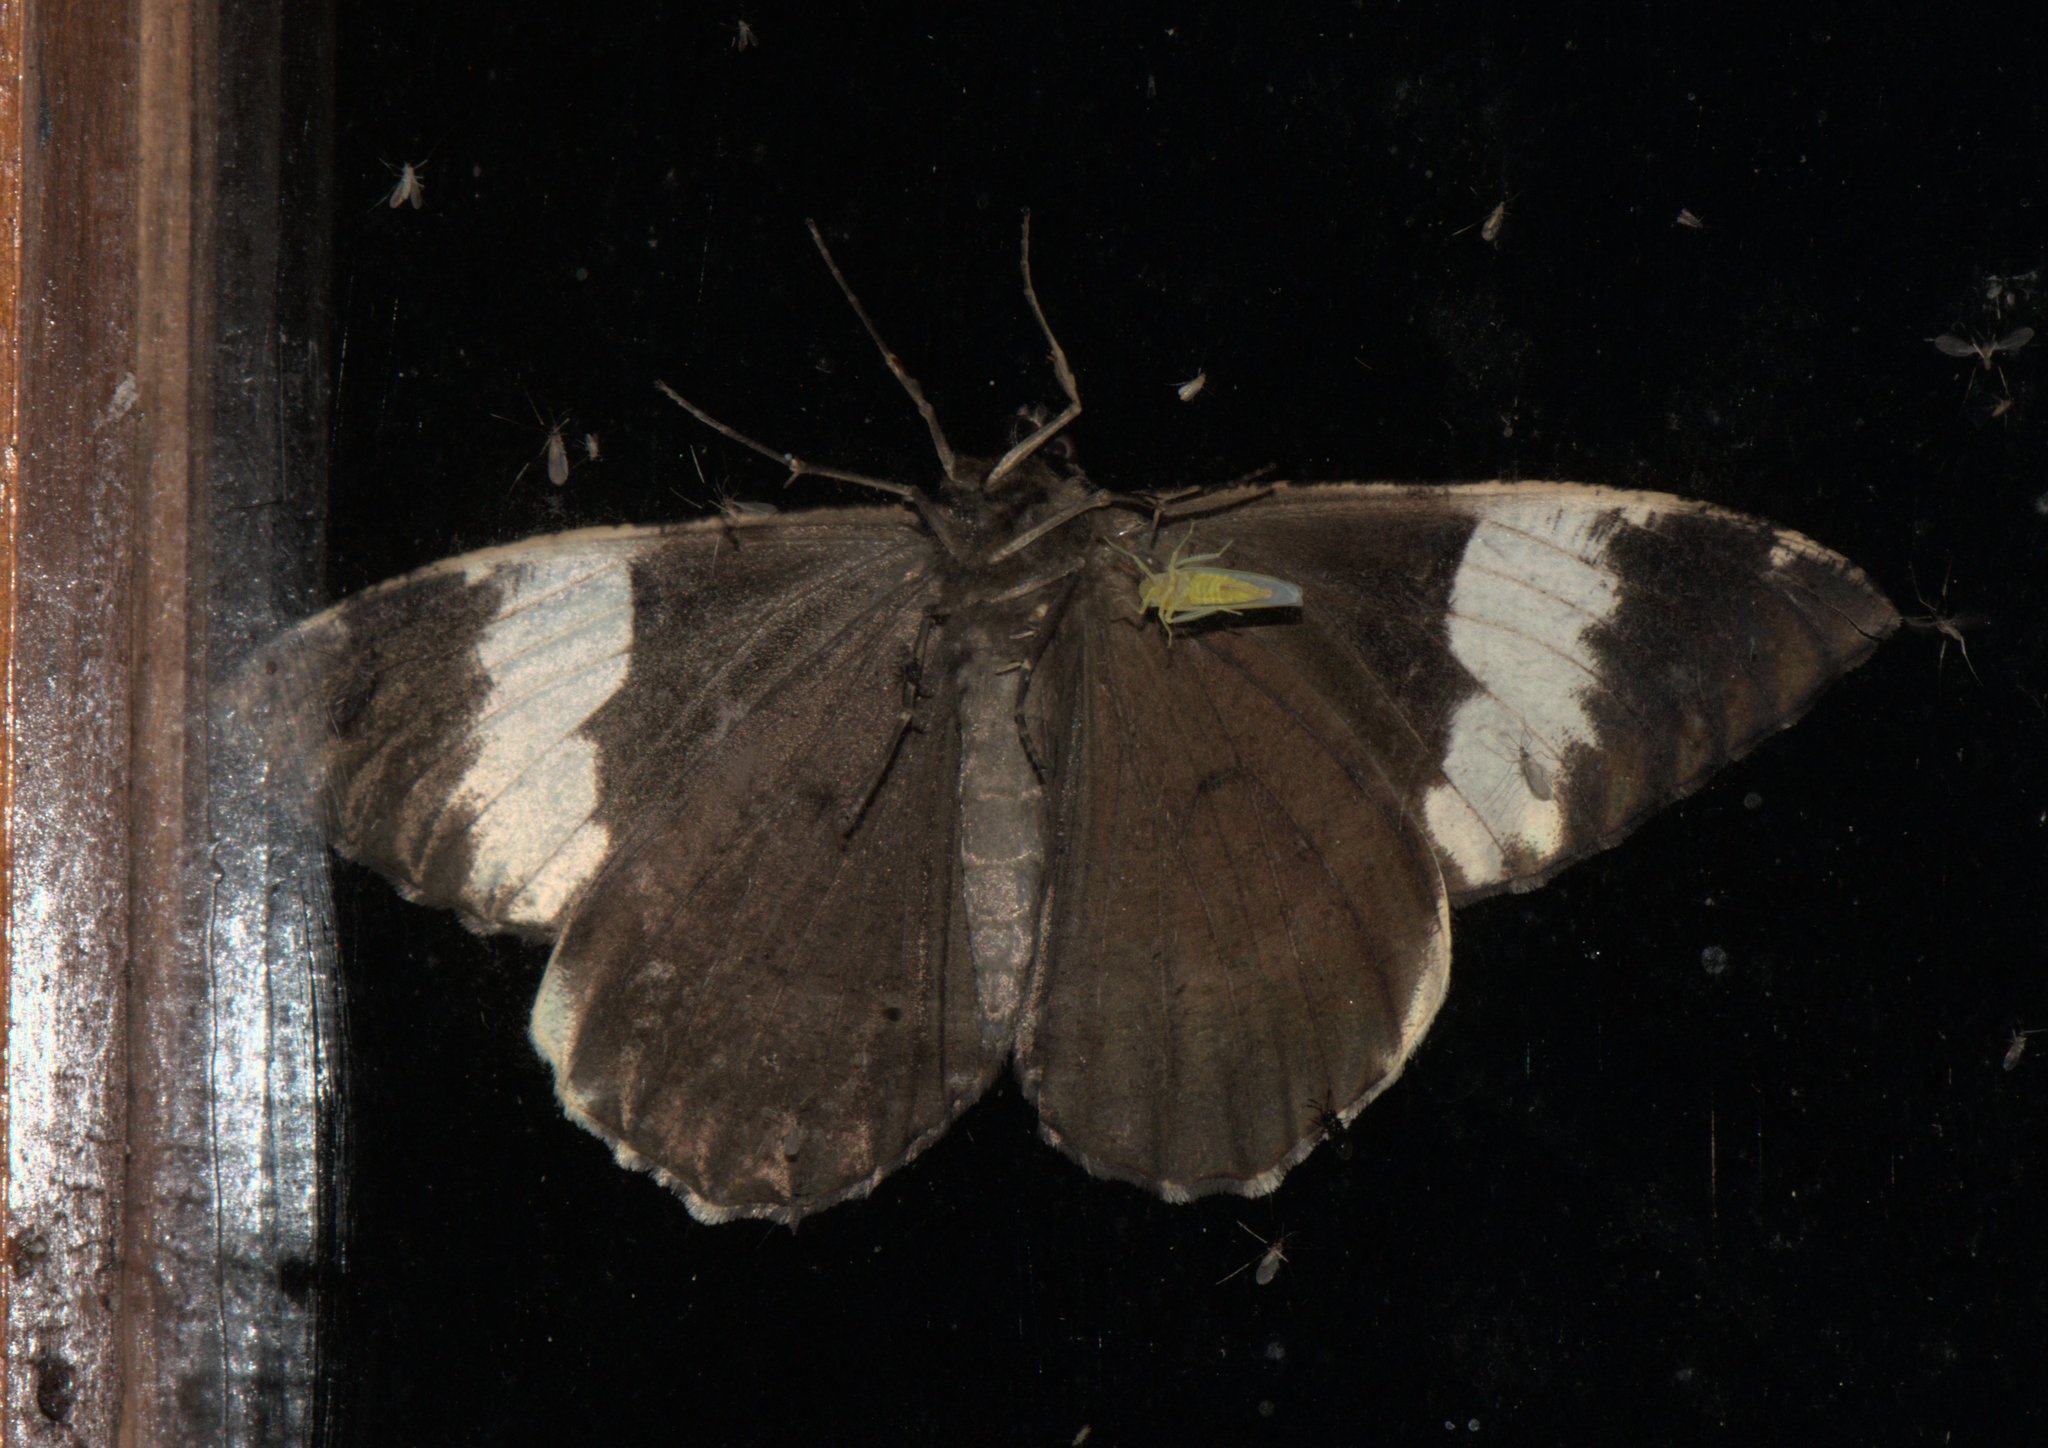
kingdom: Animalia
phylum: Arthropoda
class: Insecta
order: Lepidoptera
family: Geometridae
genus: Xandrames
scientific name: Xandrames dholaria
